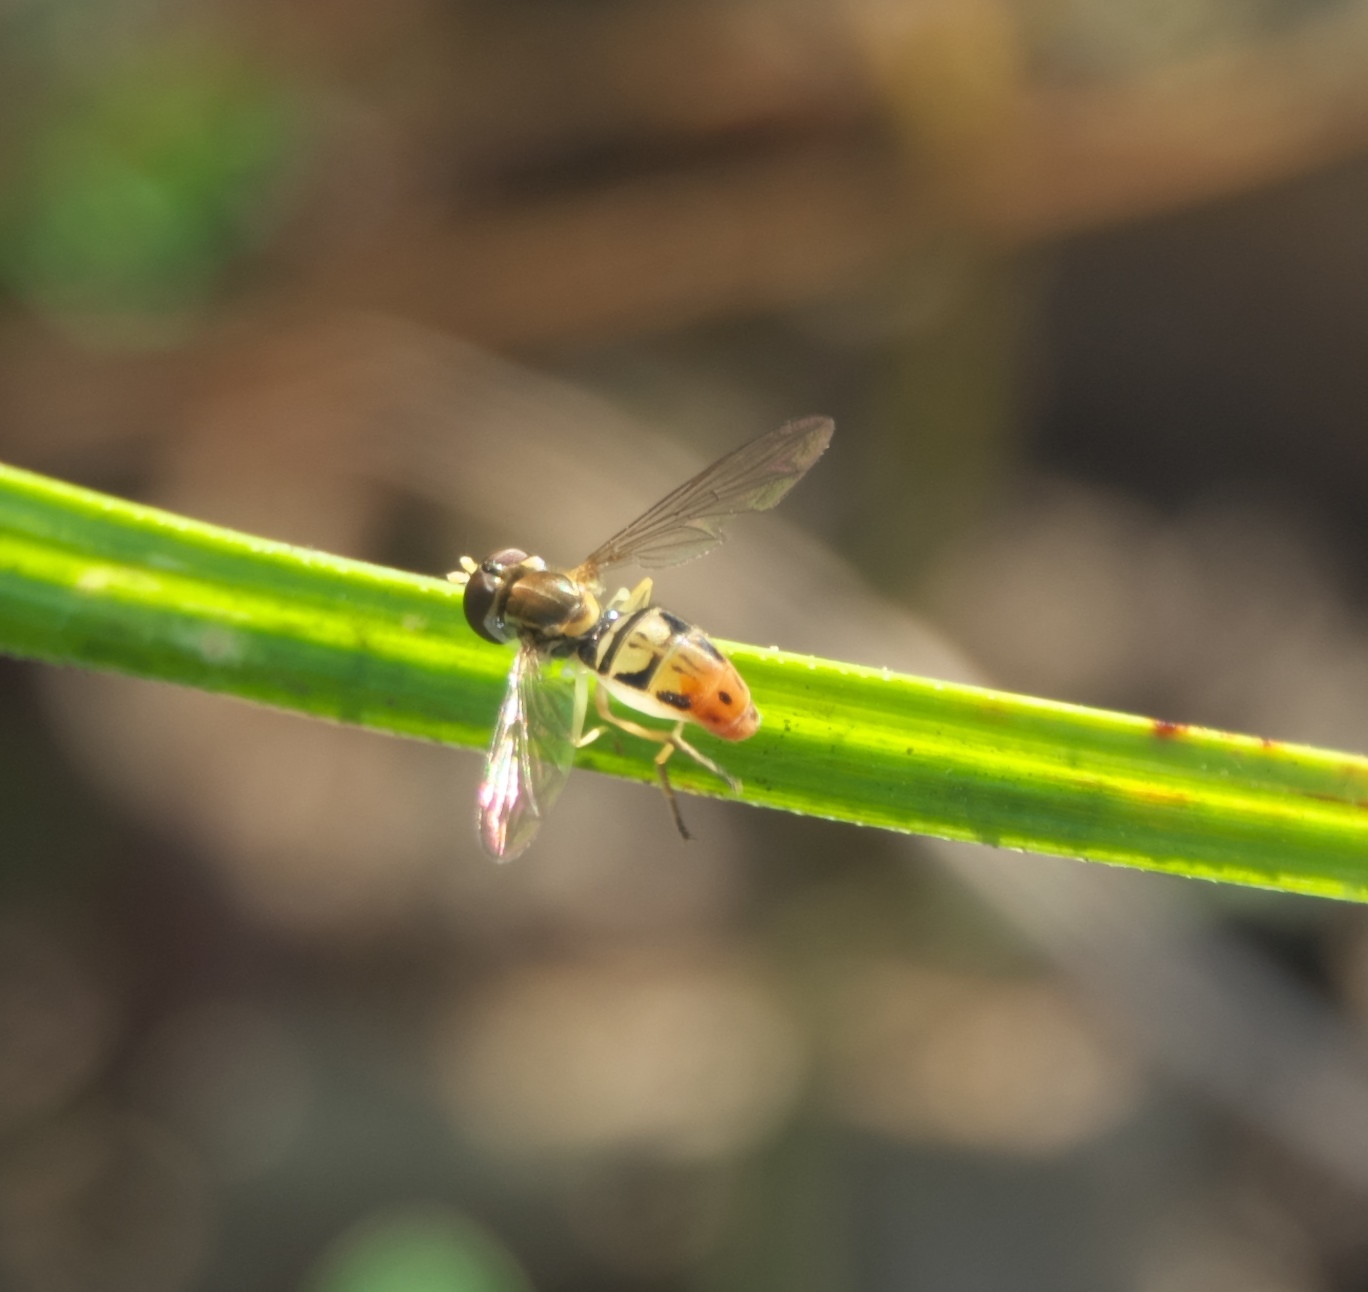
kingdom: Animalia
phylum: Arthropoda
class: Insecta
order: Diptera
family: Syrphidae
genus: Toxomerus
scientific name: Toxomerus marginatus
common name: Syrphid fly
